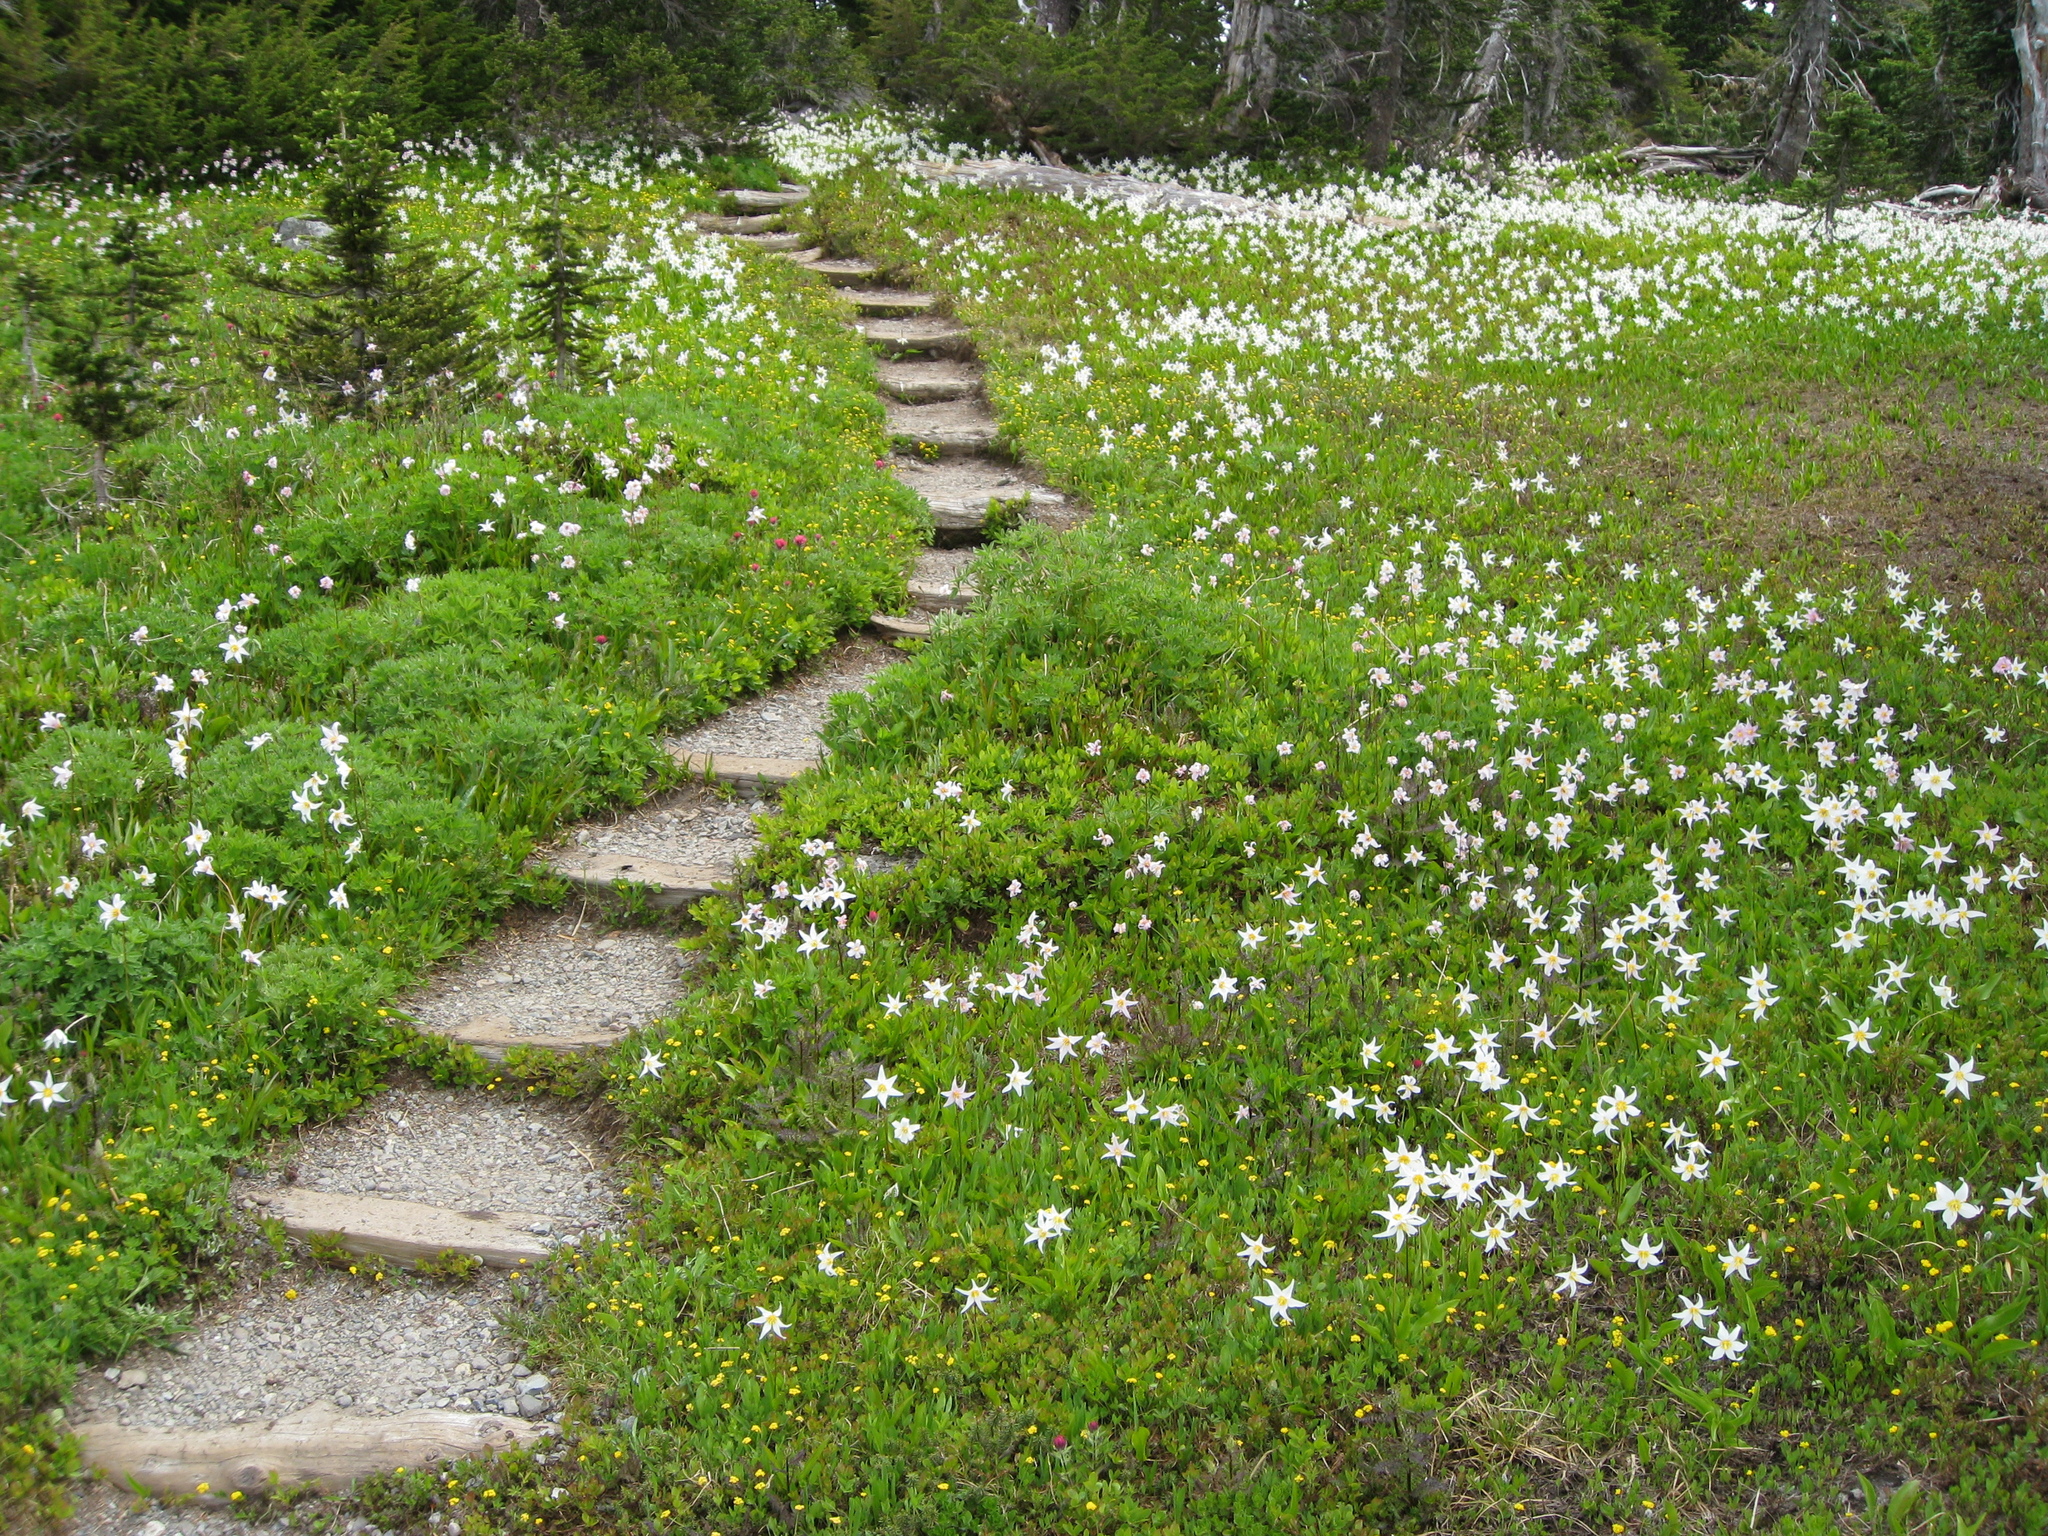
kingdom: Plantae
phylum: Tracheophyta
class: Liliopsida
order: Liliales
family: Liliaceae
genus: Erythronium
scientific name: Erythronium montanum
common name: Avalanche lily
